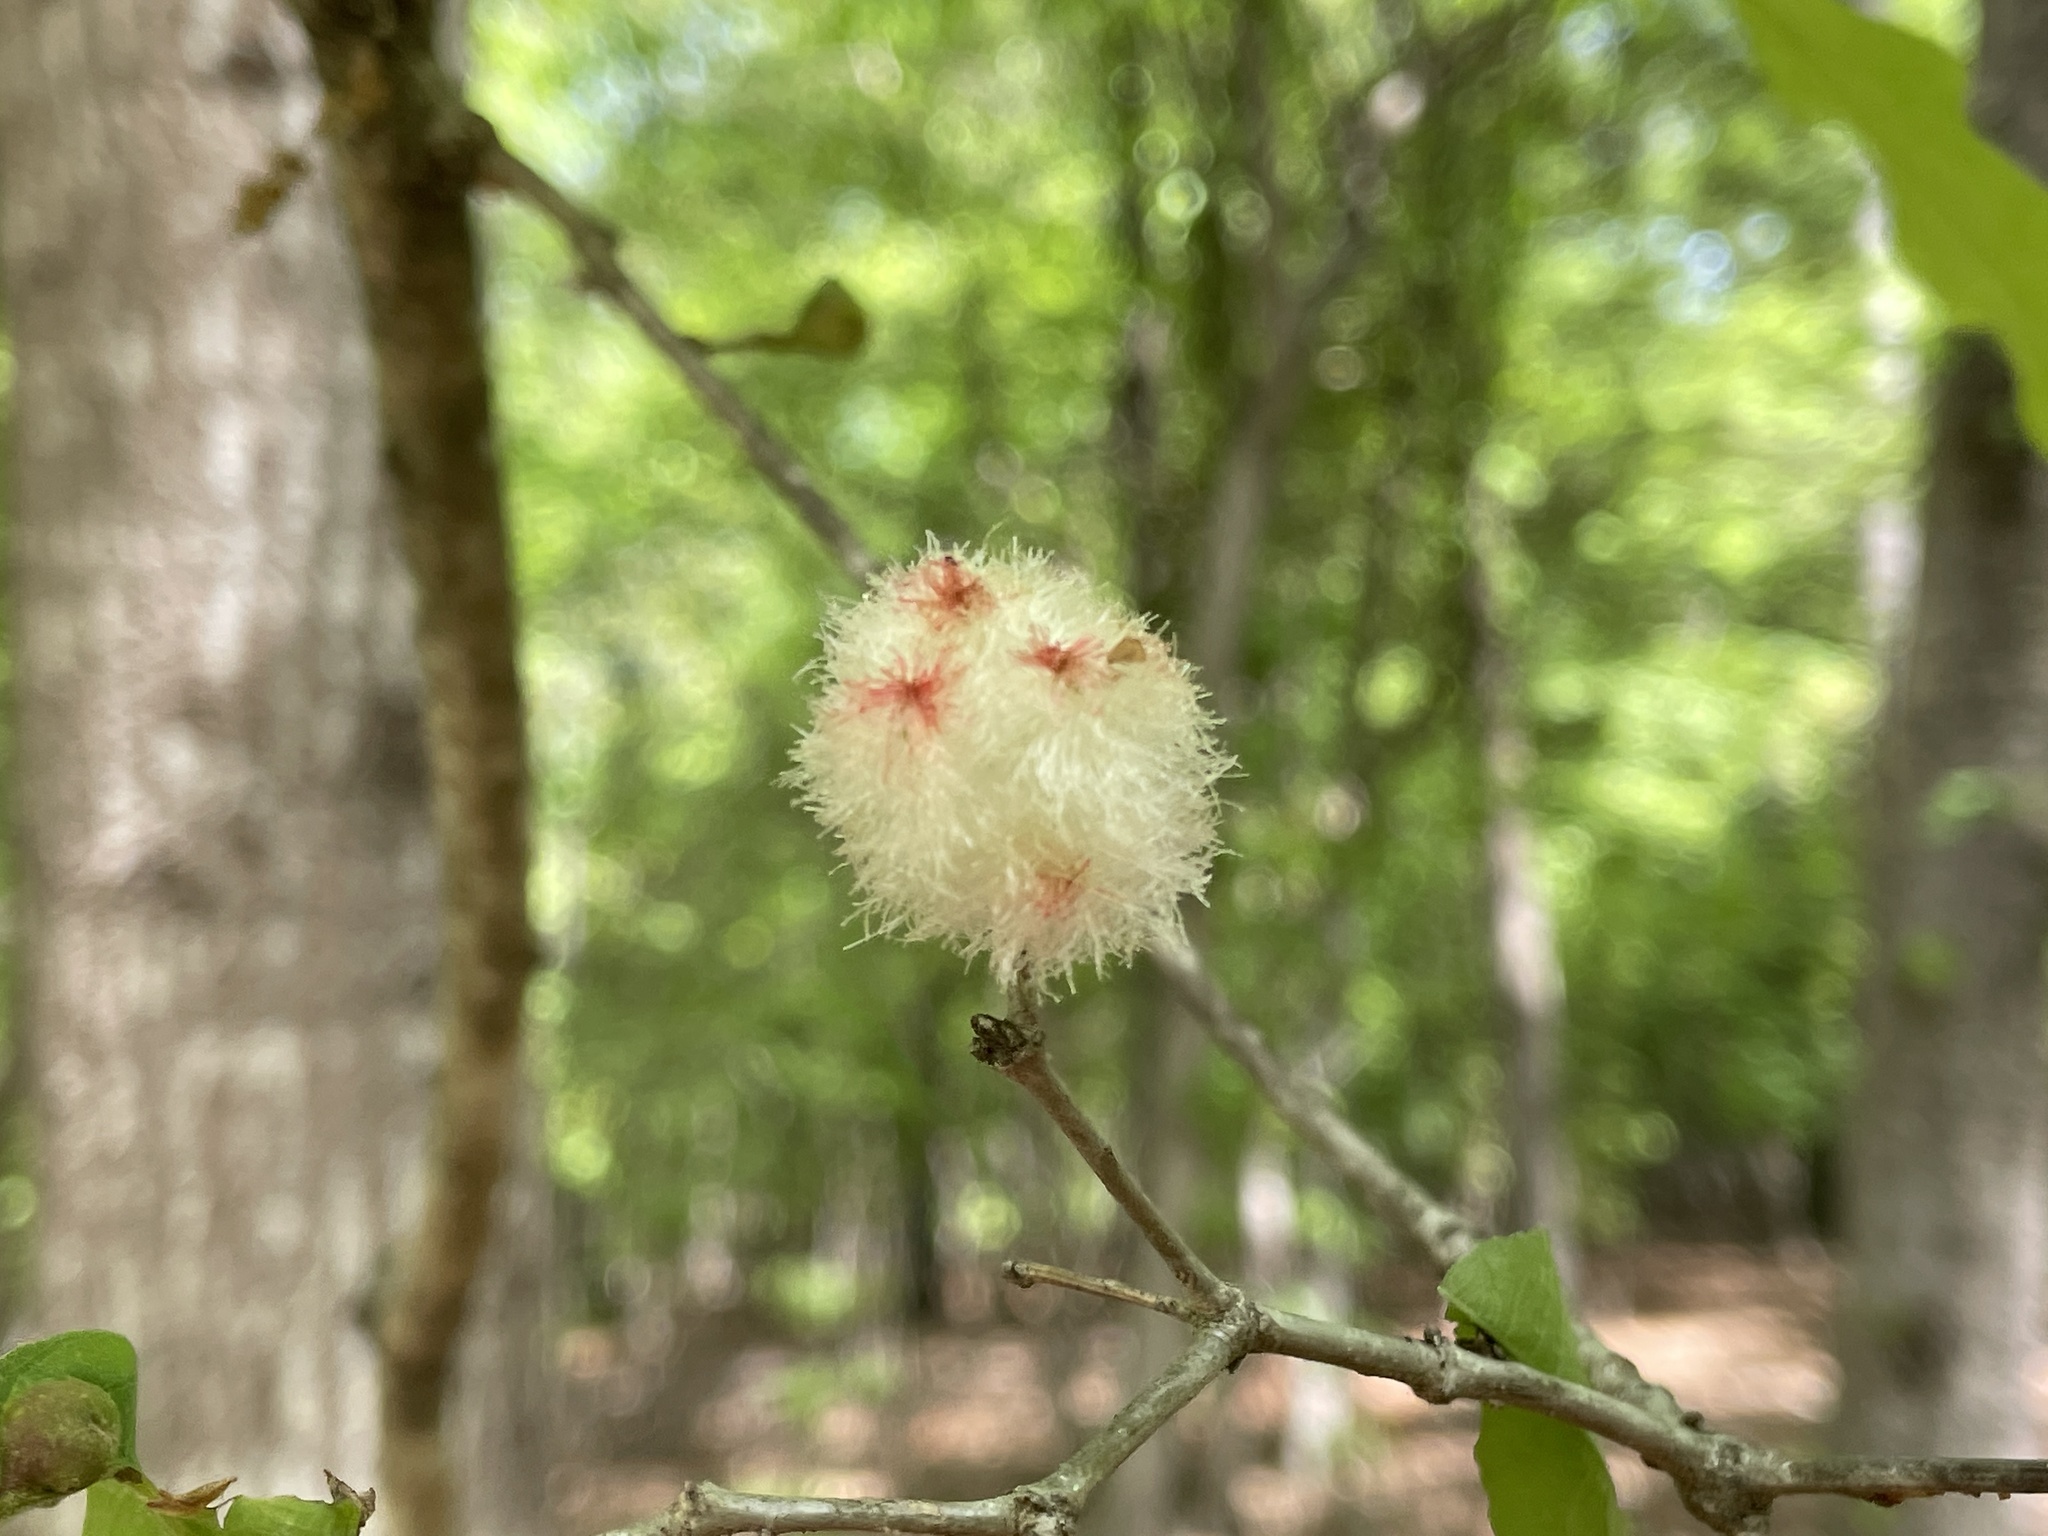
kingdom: Animalia
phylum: Arthropoda
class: Insecta
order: Hymenoptera
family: Cynipidae
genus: Callirhytis
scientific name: Callirhytis
